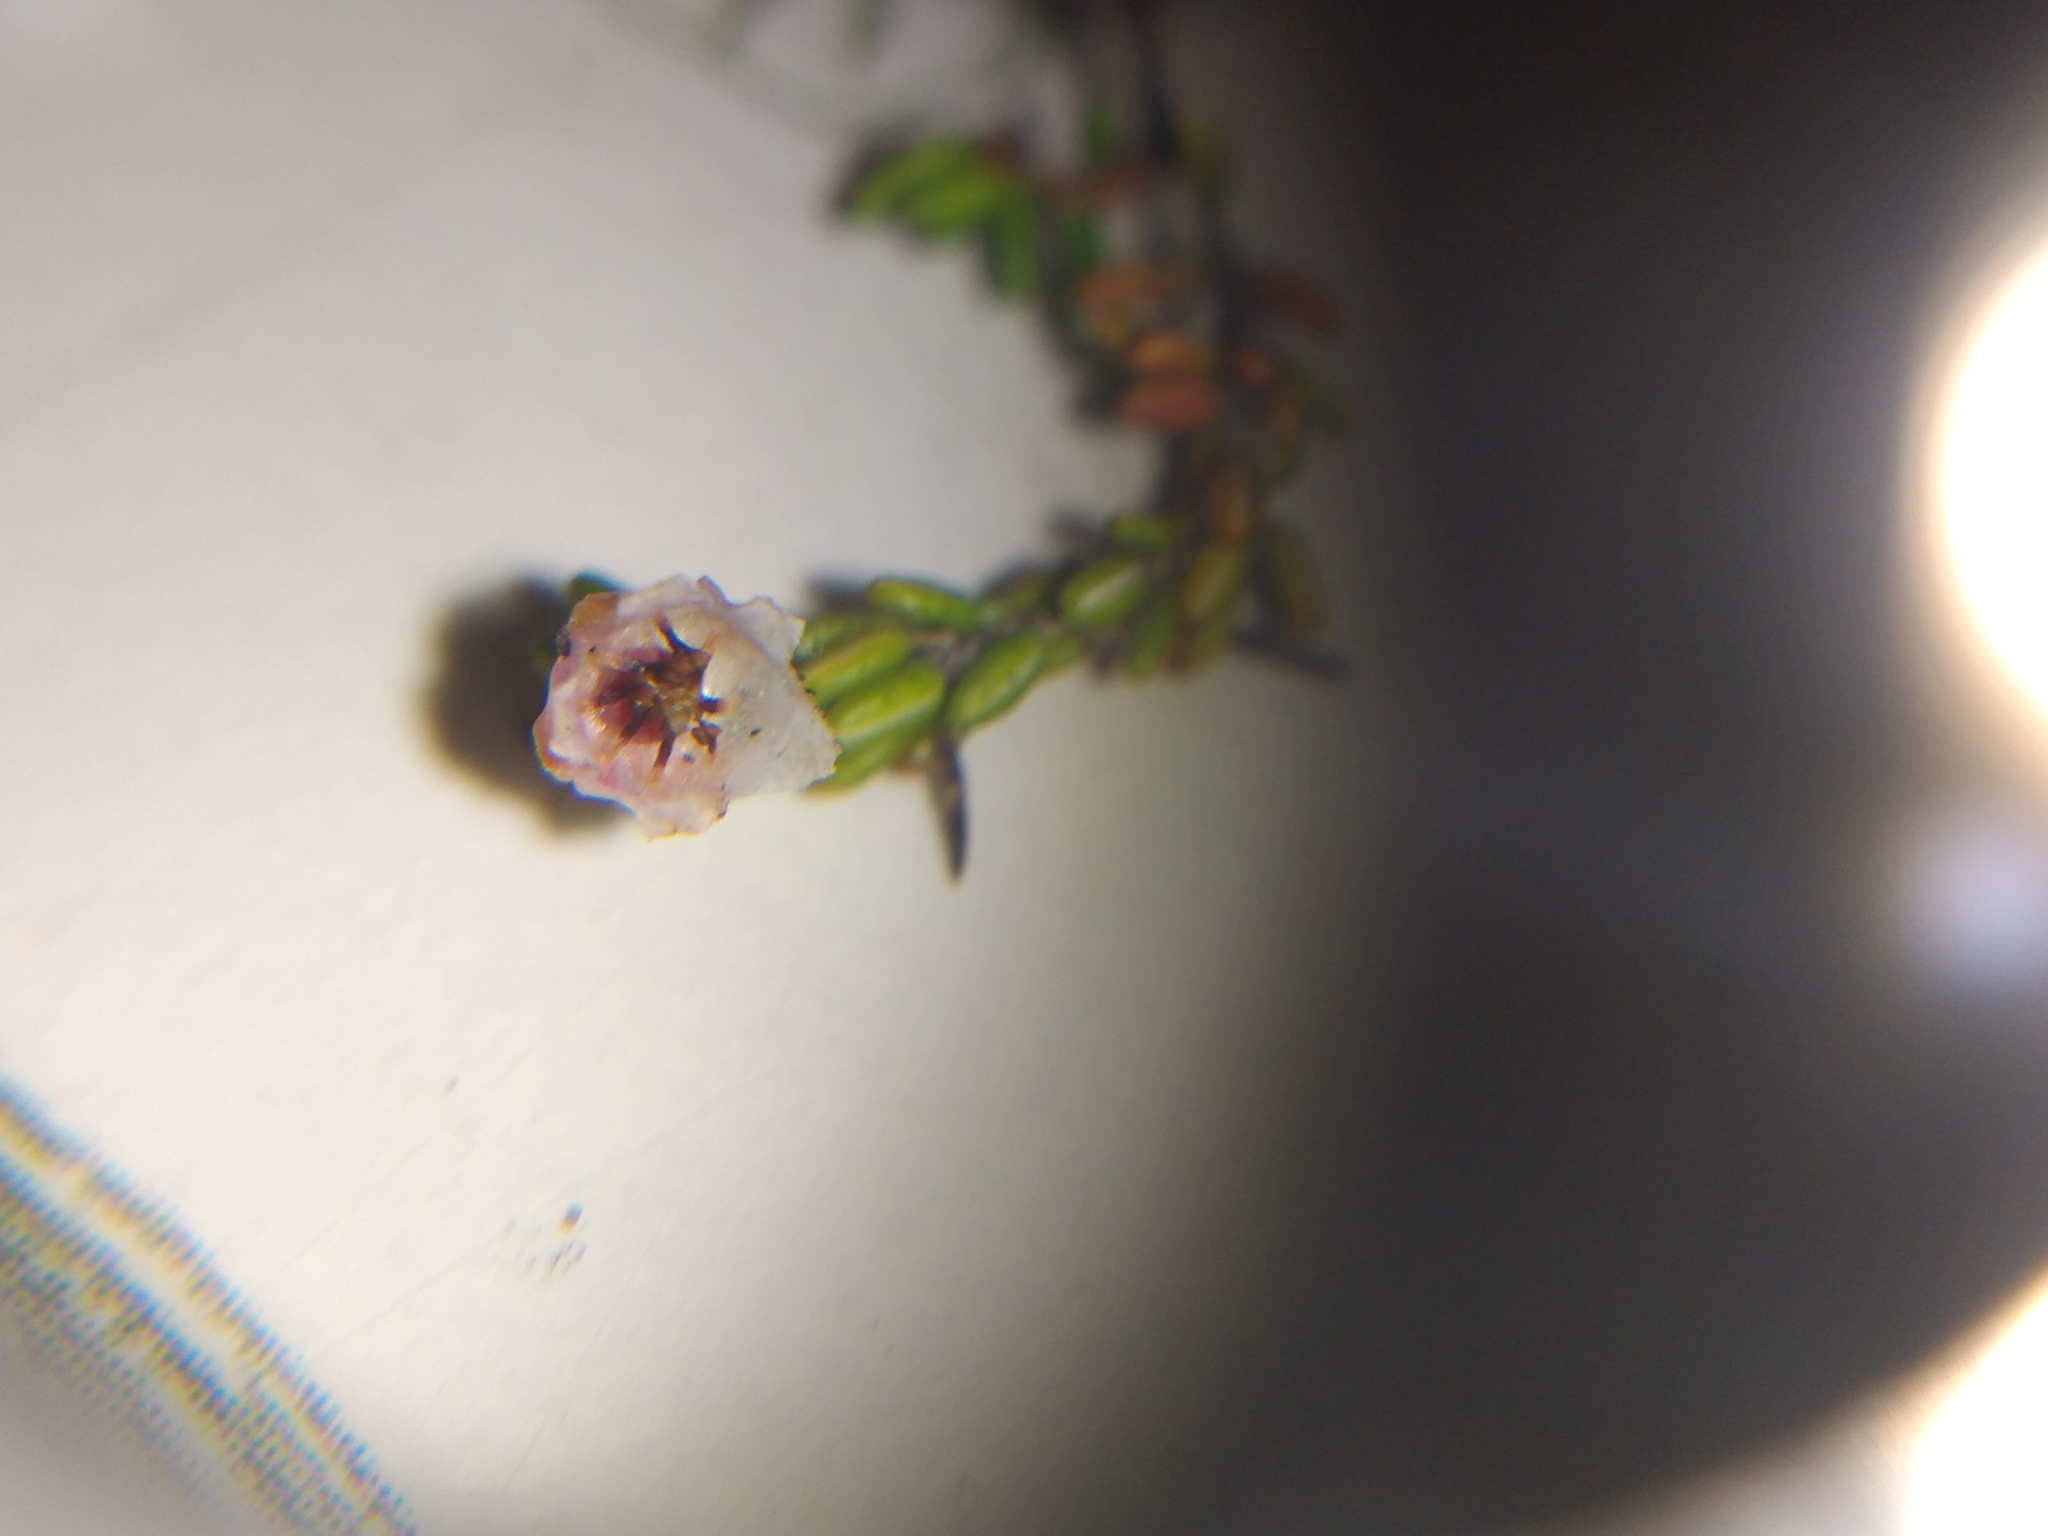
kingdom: Plantae
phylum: Tracheophyta
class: Magnoliopsida
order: Ericales
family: Ericaceae
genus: Erica
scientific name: Erica petrophila
